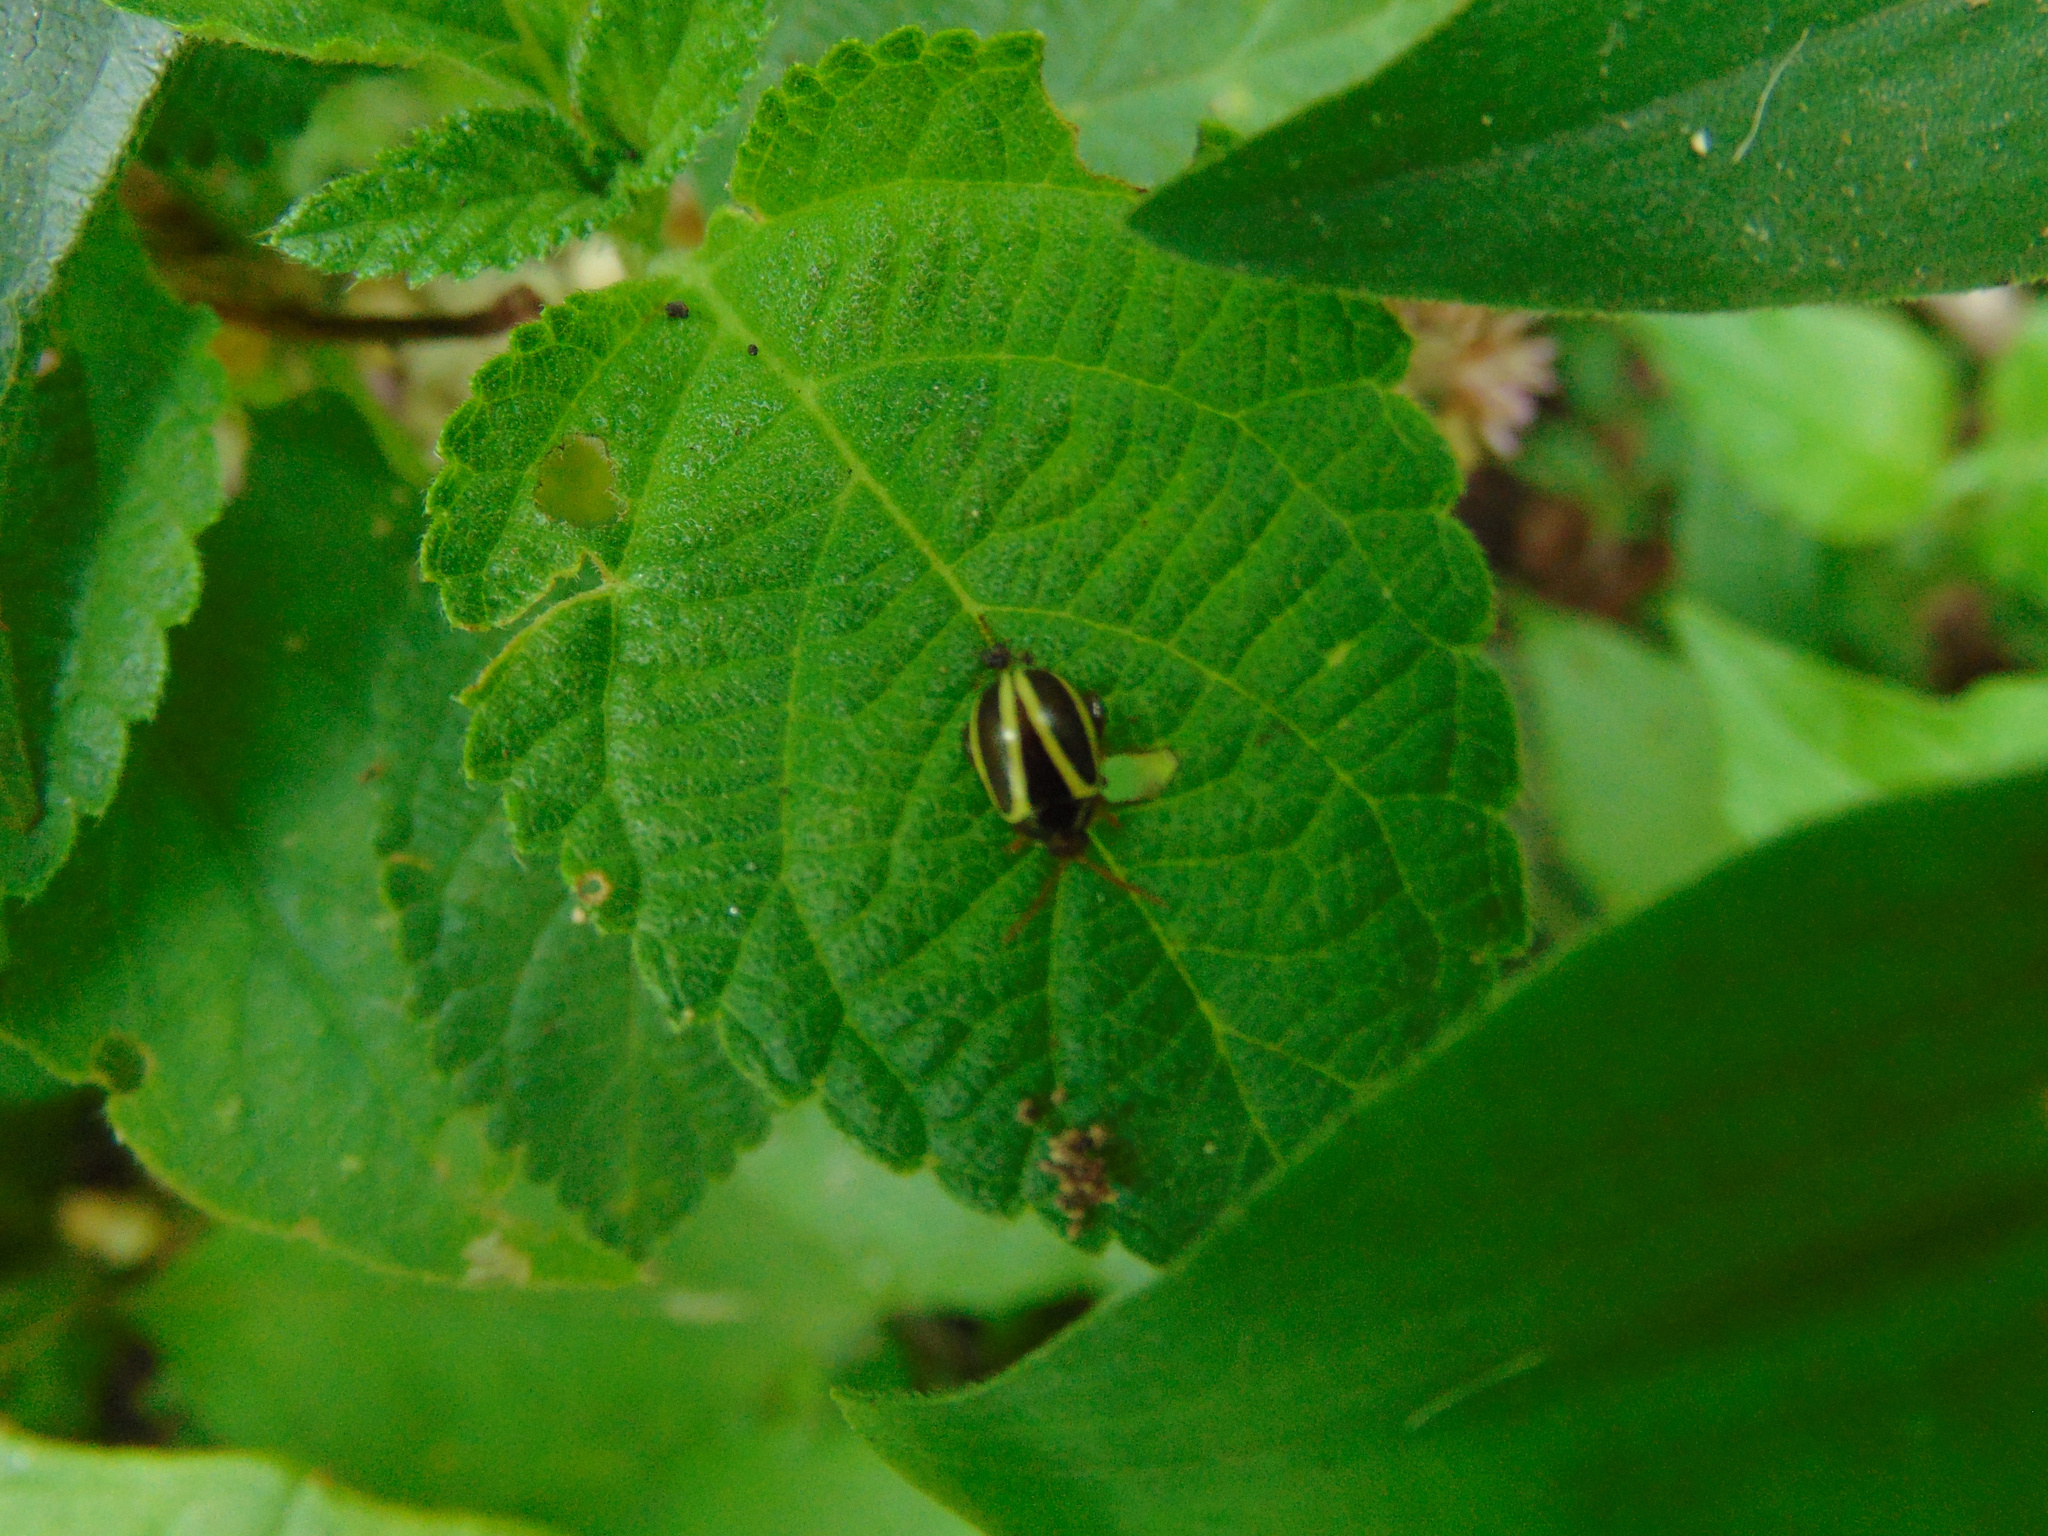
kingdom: Animalia
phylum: Arthropoda
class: Insecta
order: Coleoptera
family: Chrysomelidae
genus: Alagoasa
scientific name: Alagoasa
